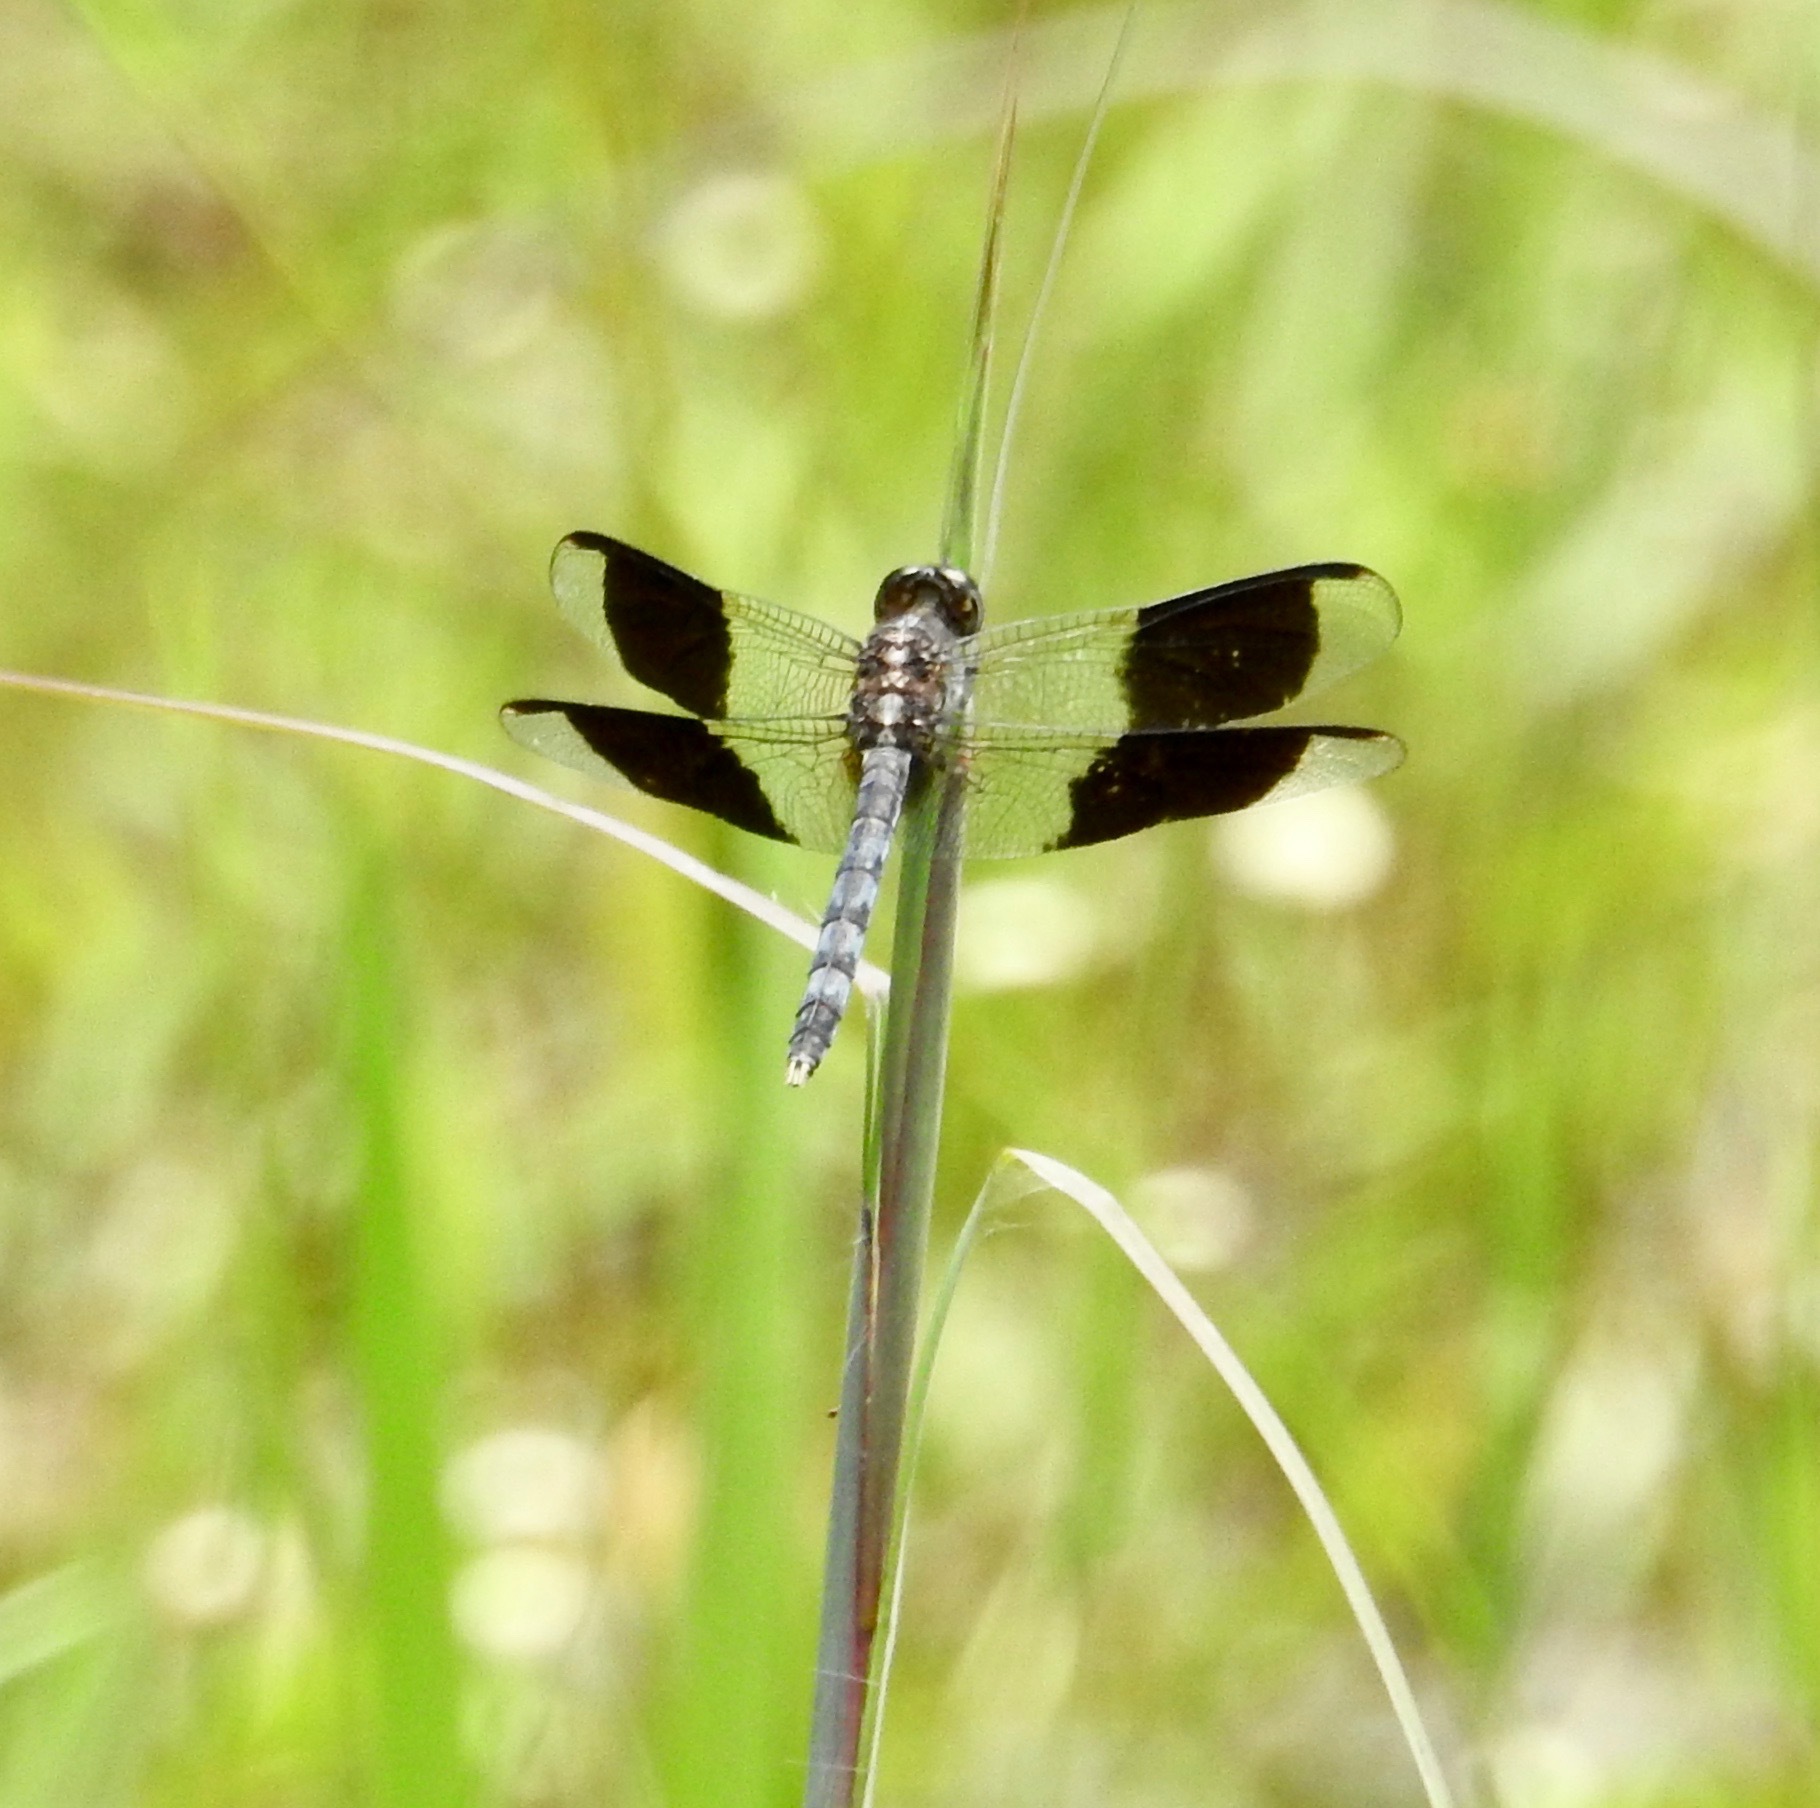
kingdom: Animalia
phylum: Arthropoda
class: Insecta
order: Odonata
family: Libellulidae
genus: Erythrodiplax
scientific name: Erythrodiplax umbrata
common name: Band-winged dragonlet
